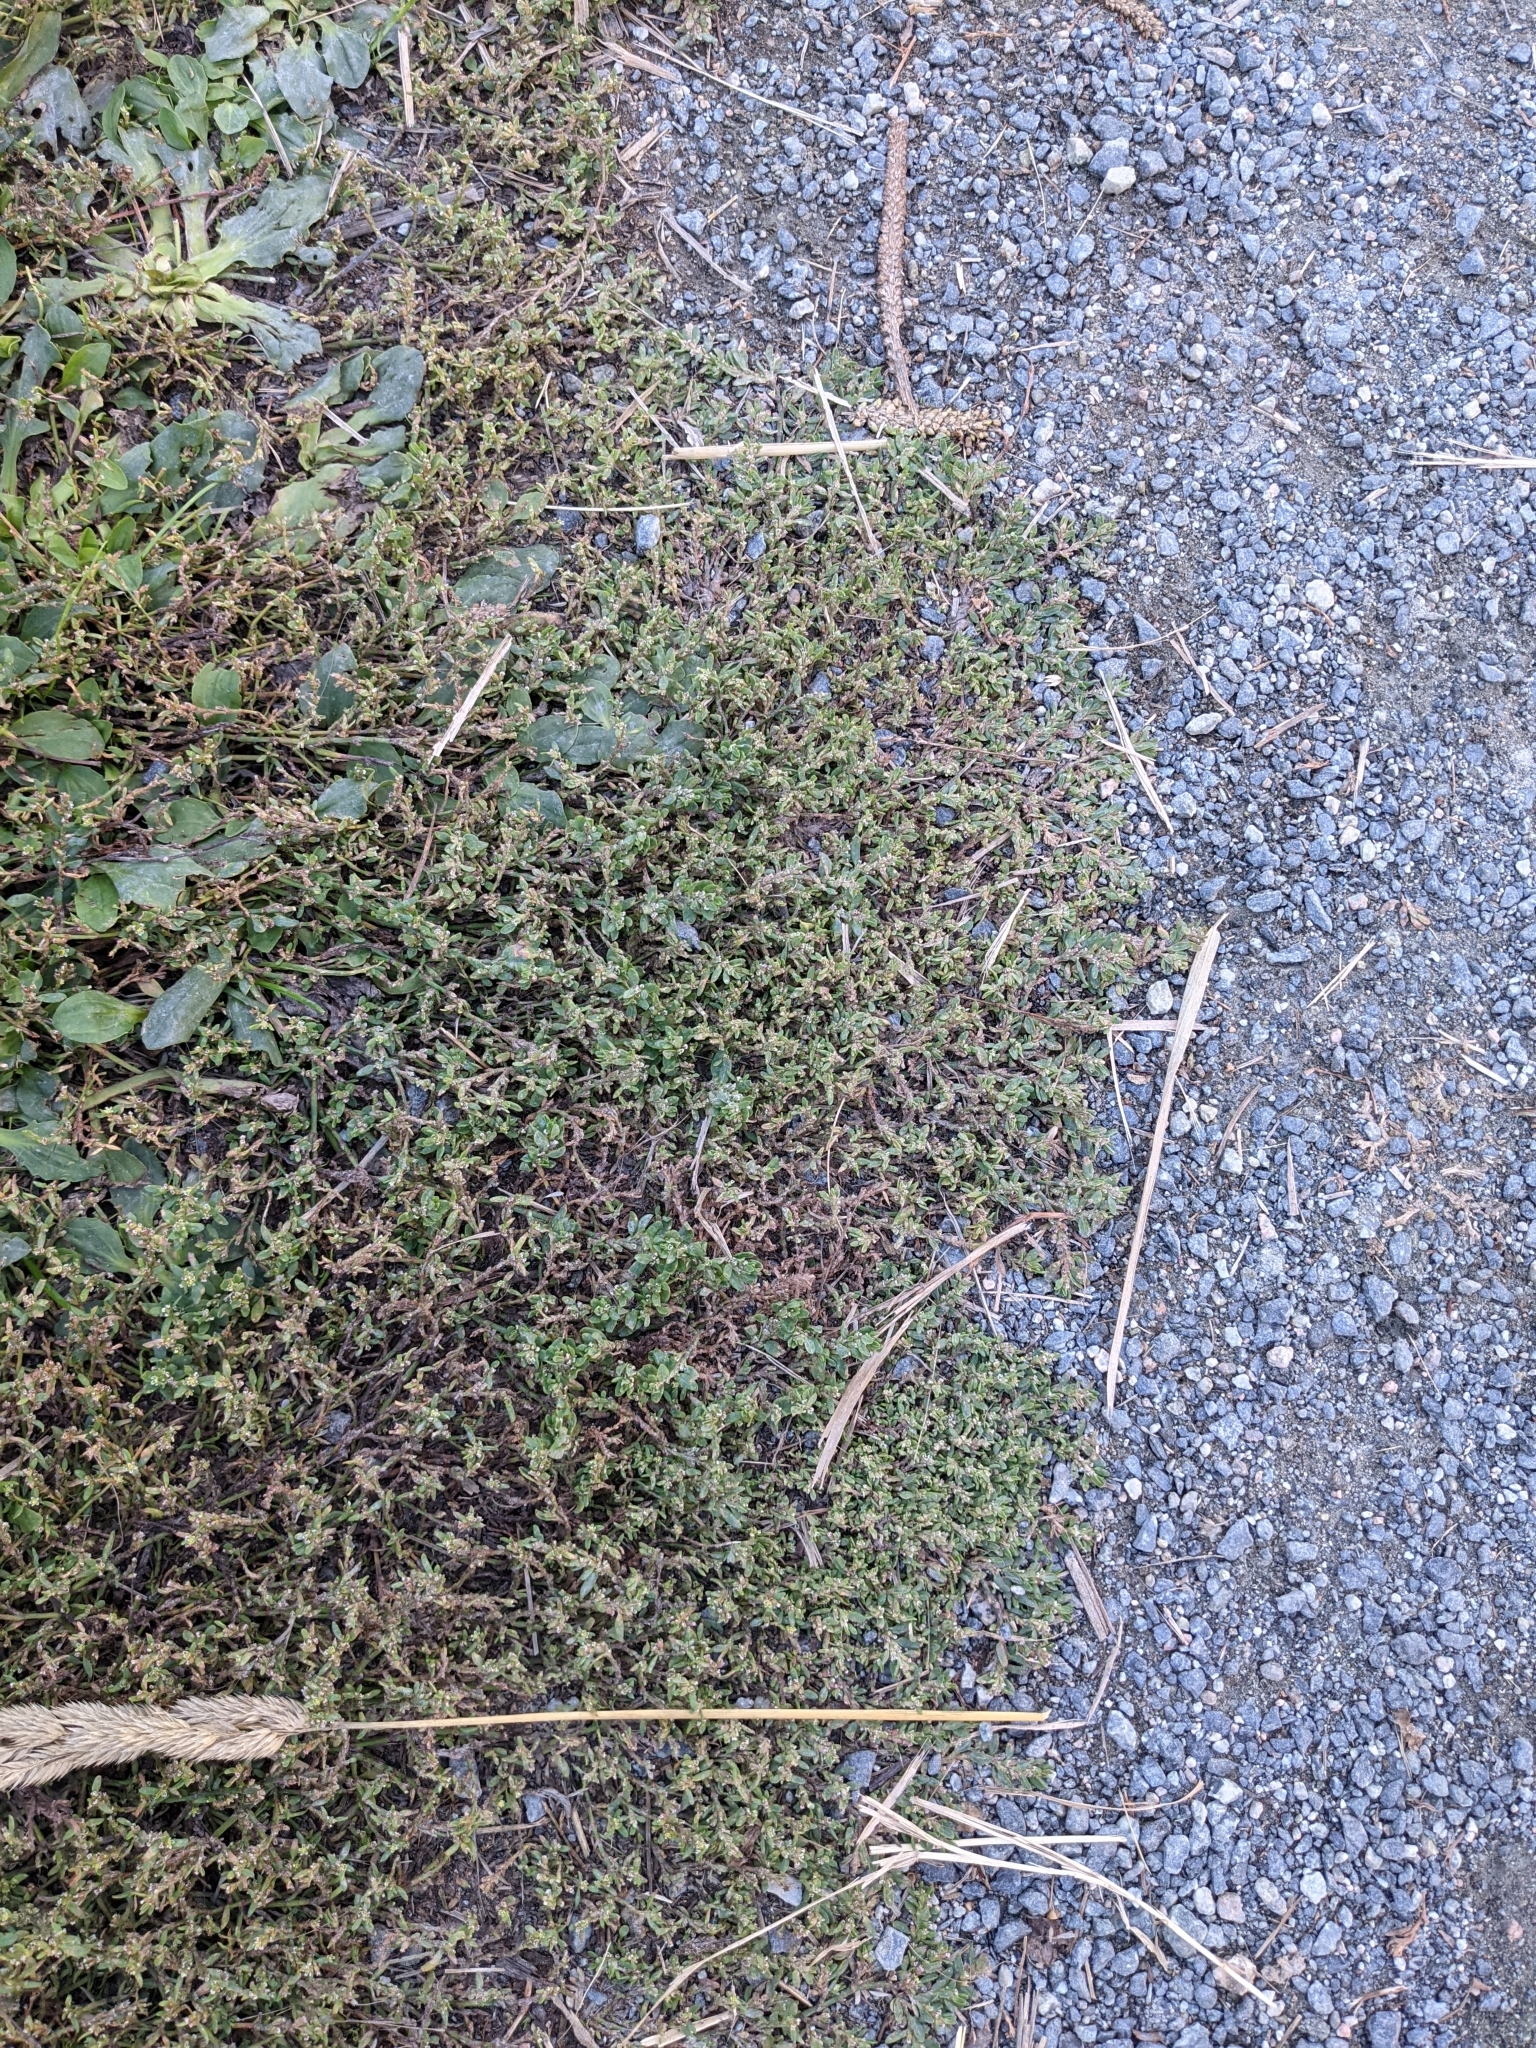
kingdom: Plantae
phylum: Tracheophyta
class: Magnoliopsida
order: Caryophyllales
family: Polygonaceae
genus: Polygonum
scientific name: Polygonum aviculare
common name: Prostrate knotweed
